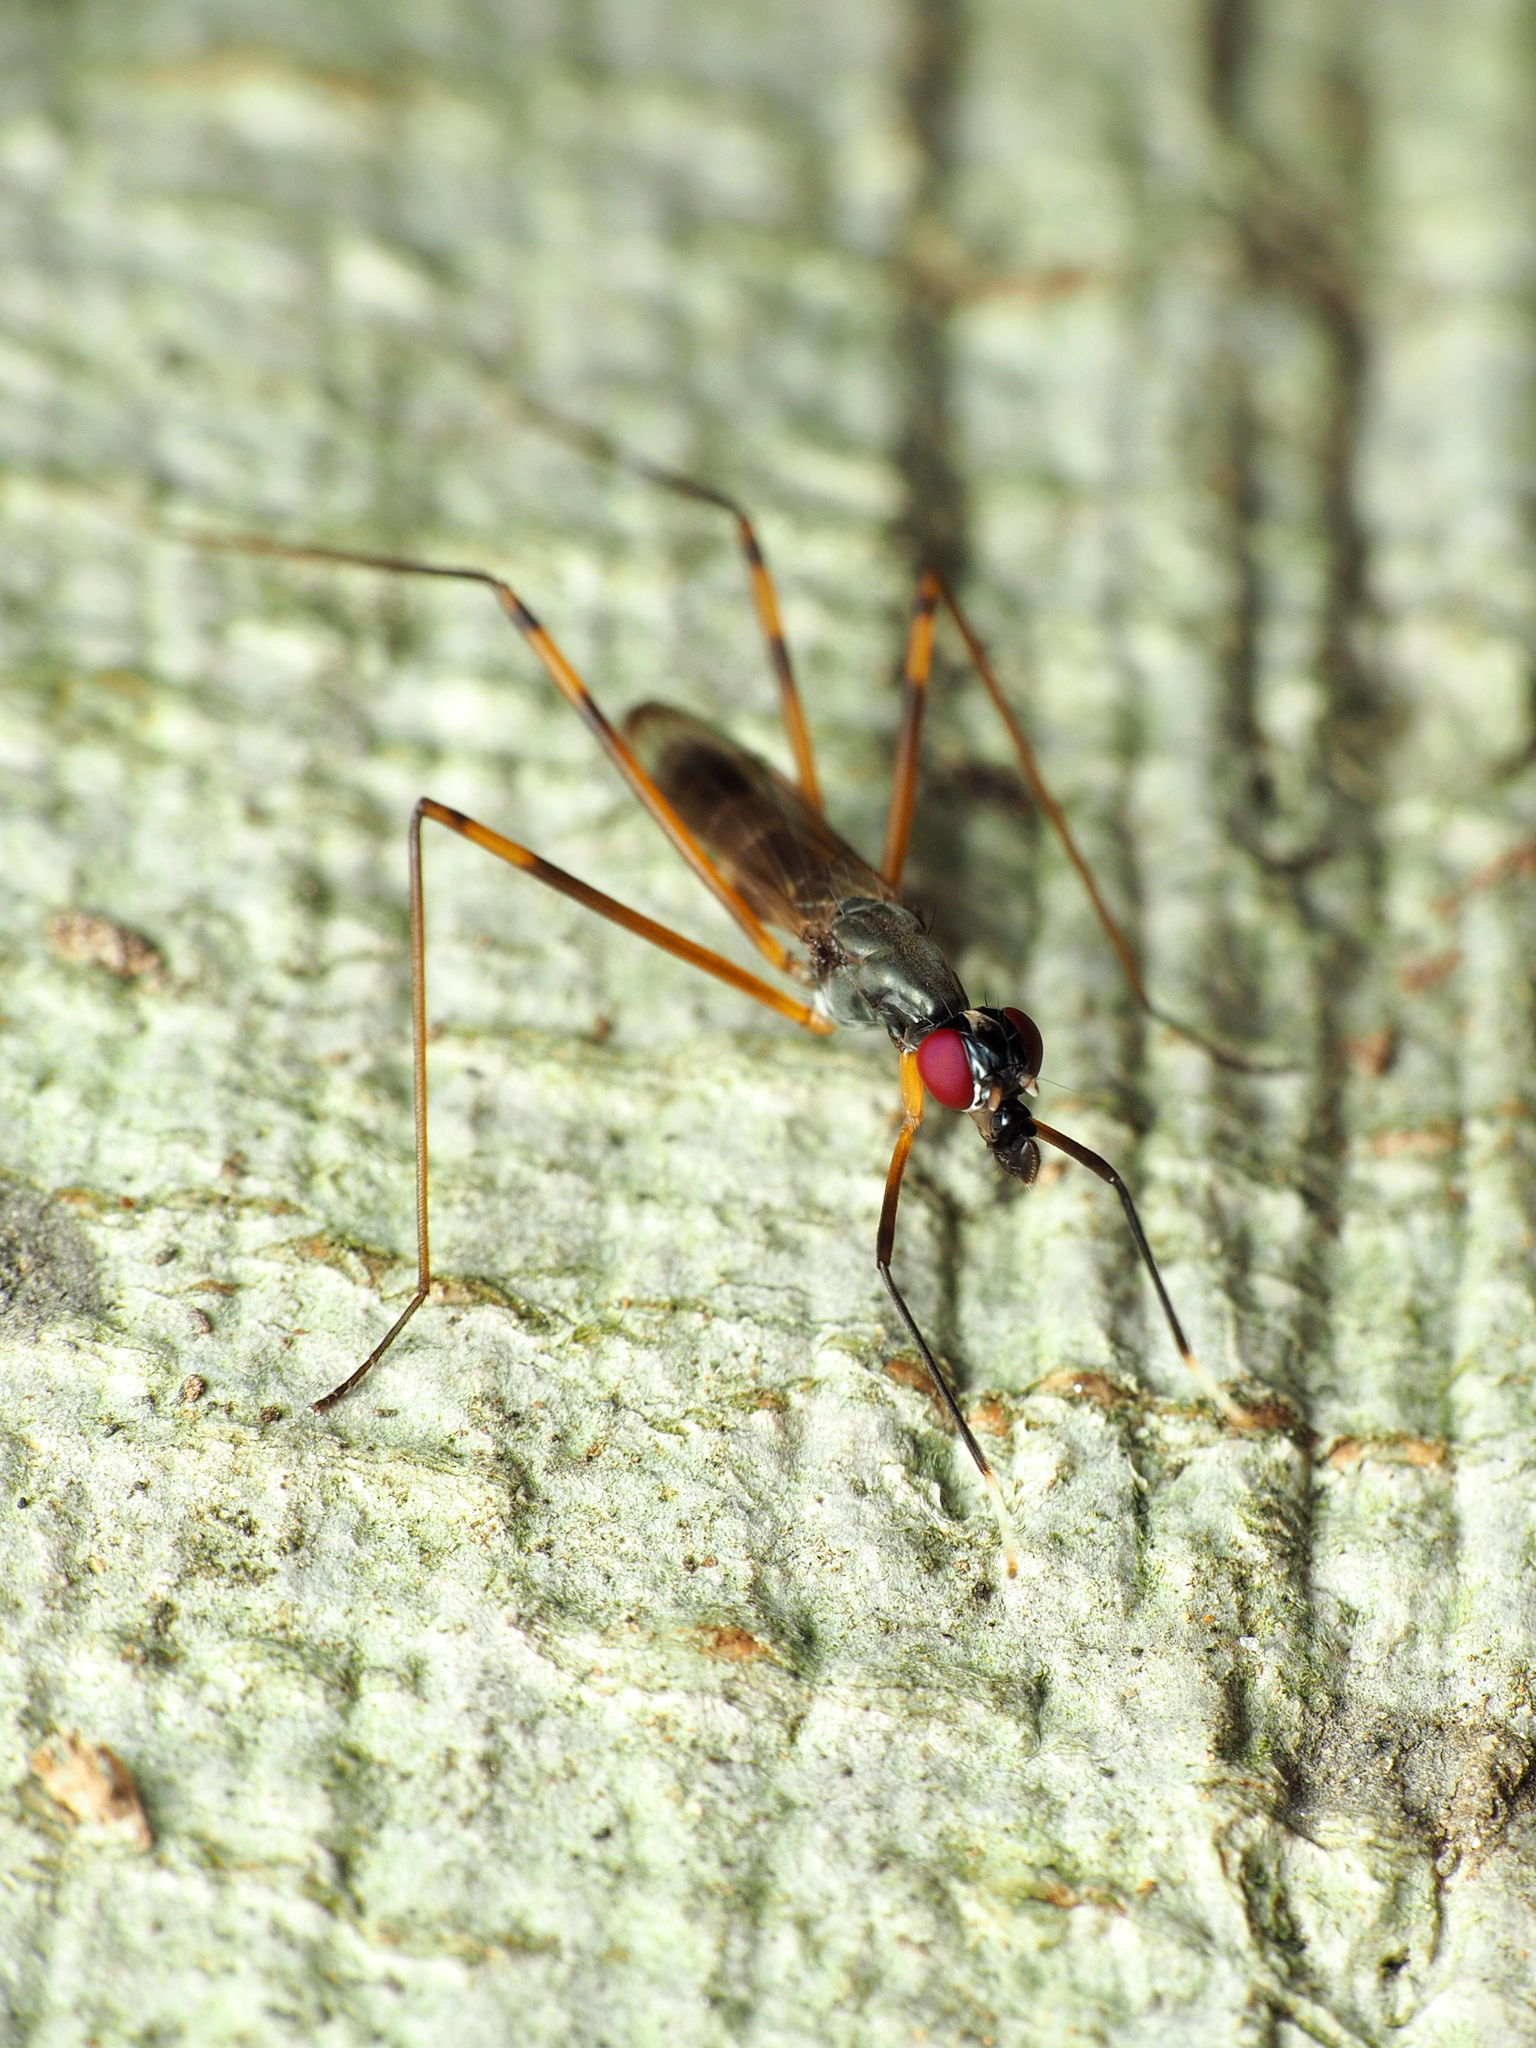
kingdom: Animalia
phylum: Arthropoda
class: Insecta
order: Diptera
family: Micropezidae
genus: Rainieria
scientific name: Rainieria antennaepes
